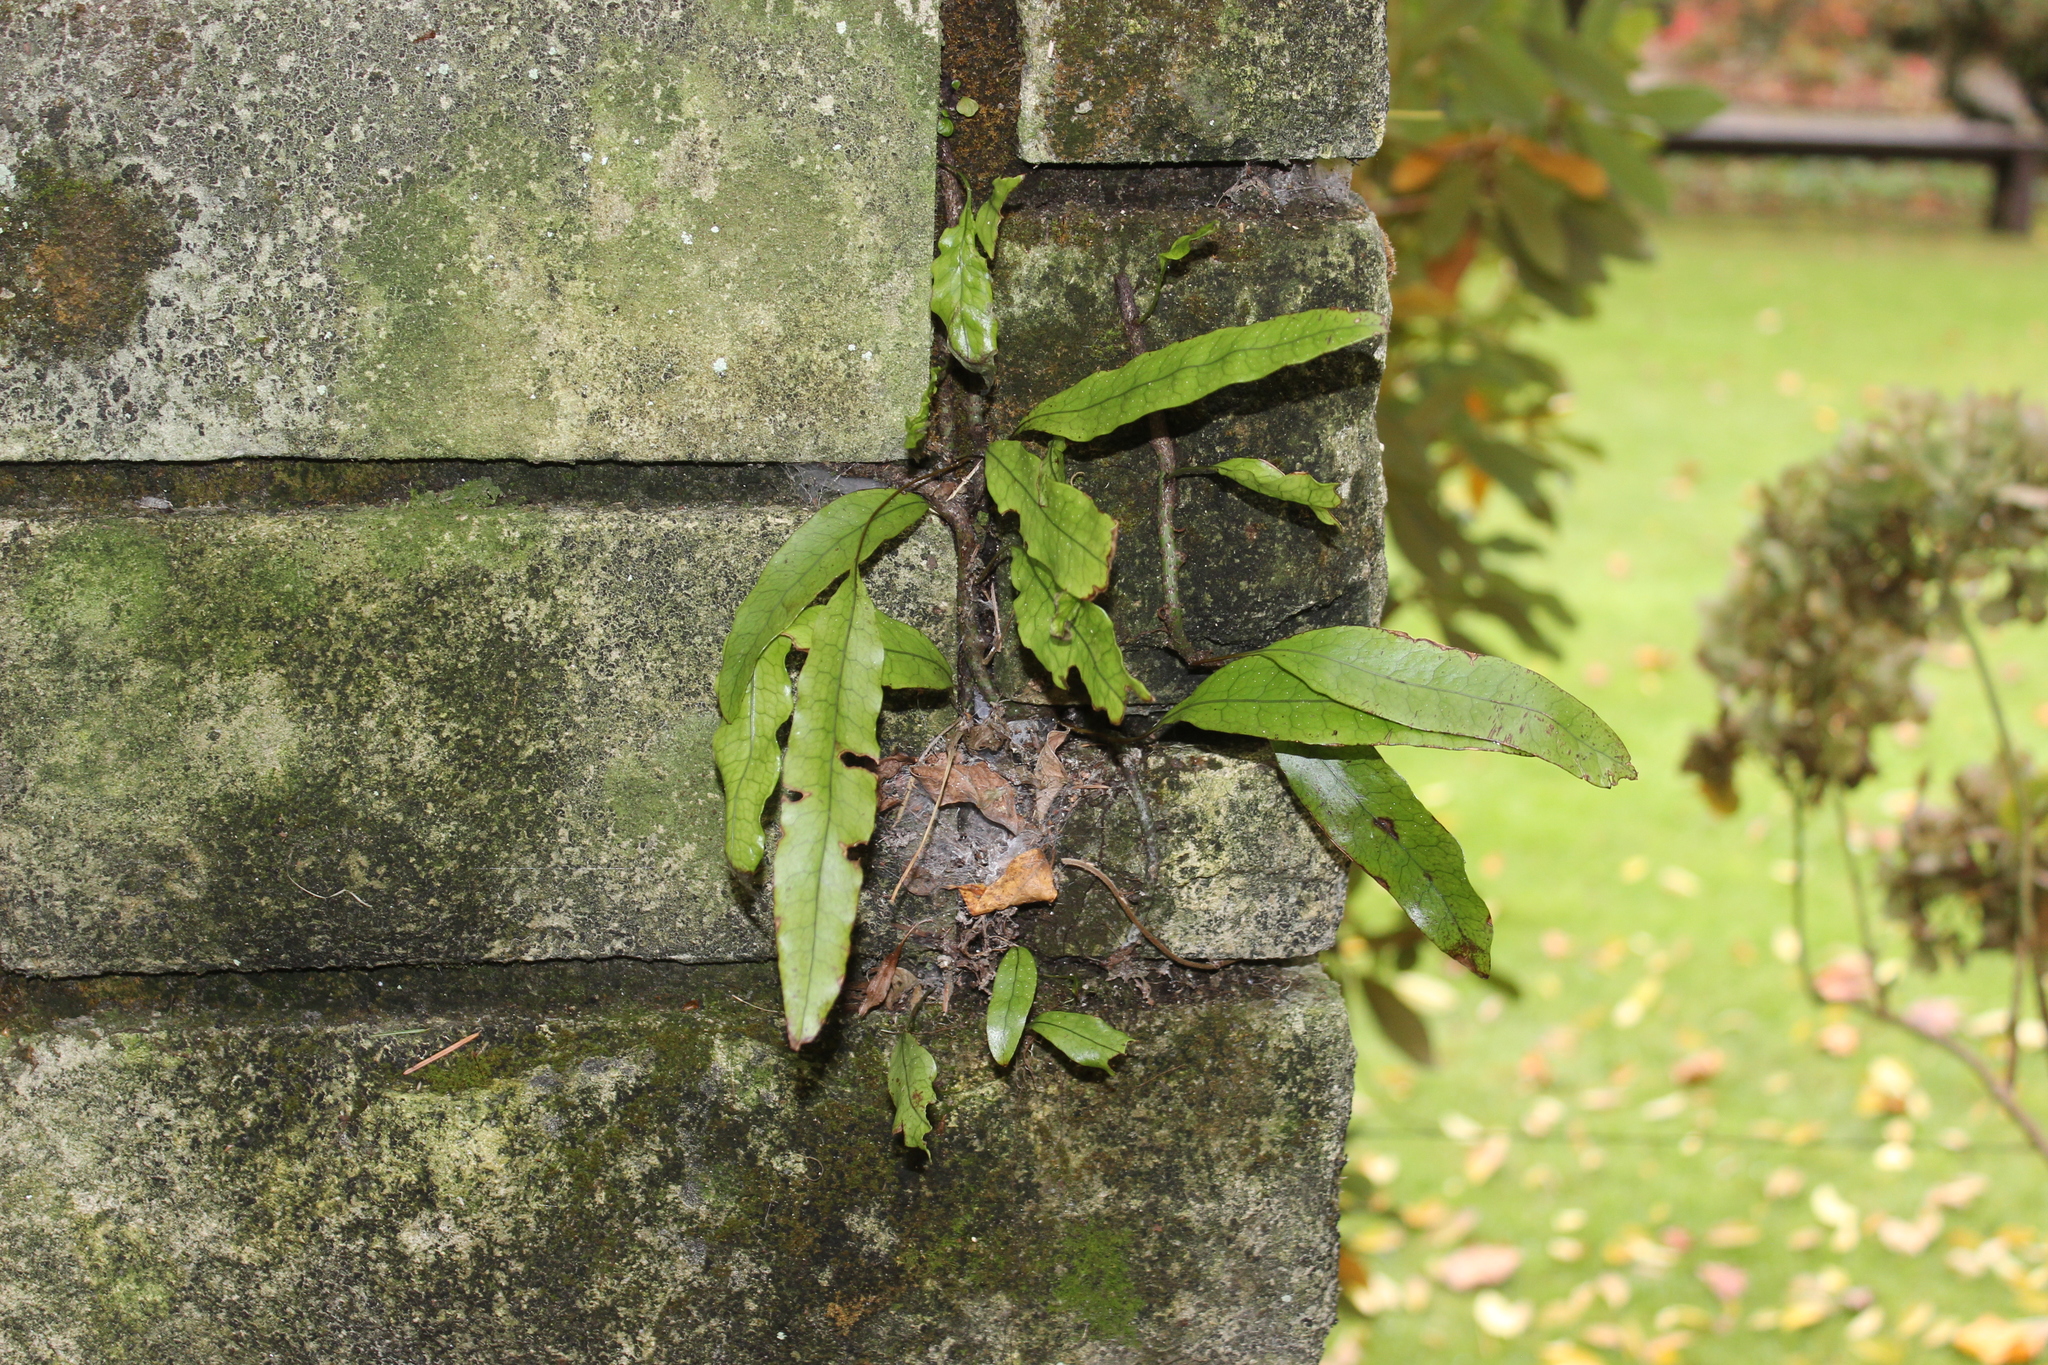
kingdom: Plantae
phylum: Tracheophyta
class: Polypodiopsida
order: Polypodiales
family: Polypodiaceae
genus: Lecanopteris
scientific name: Lecanopteris pustulata
